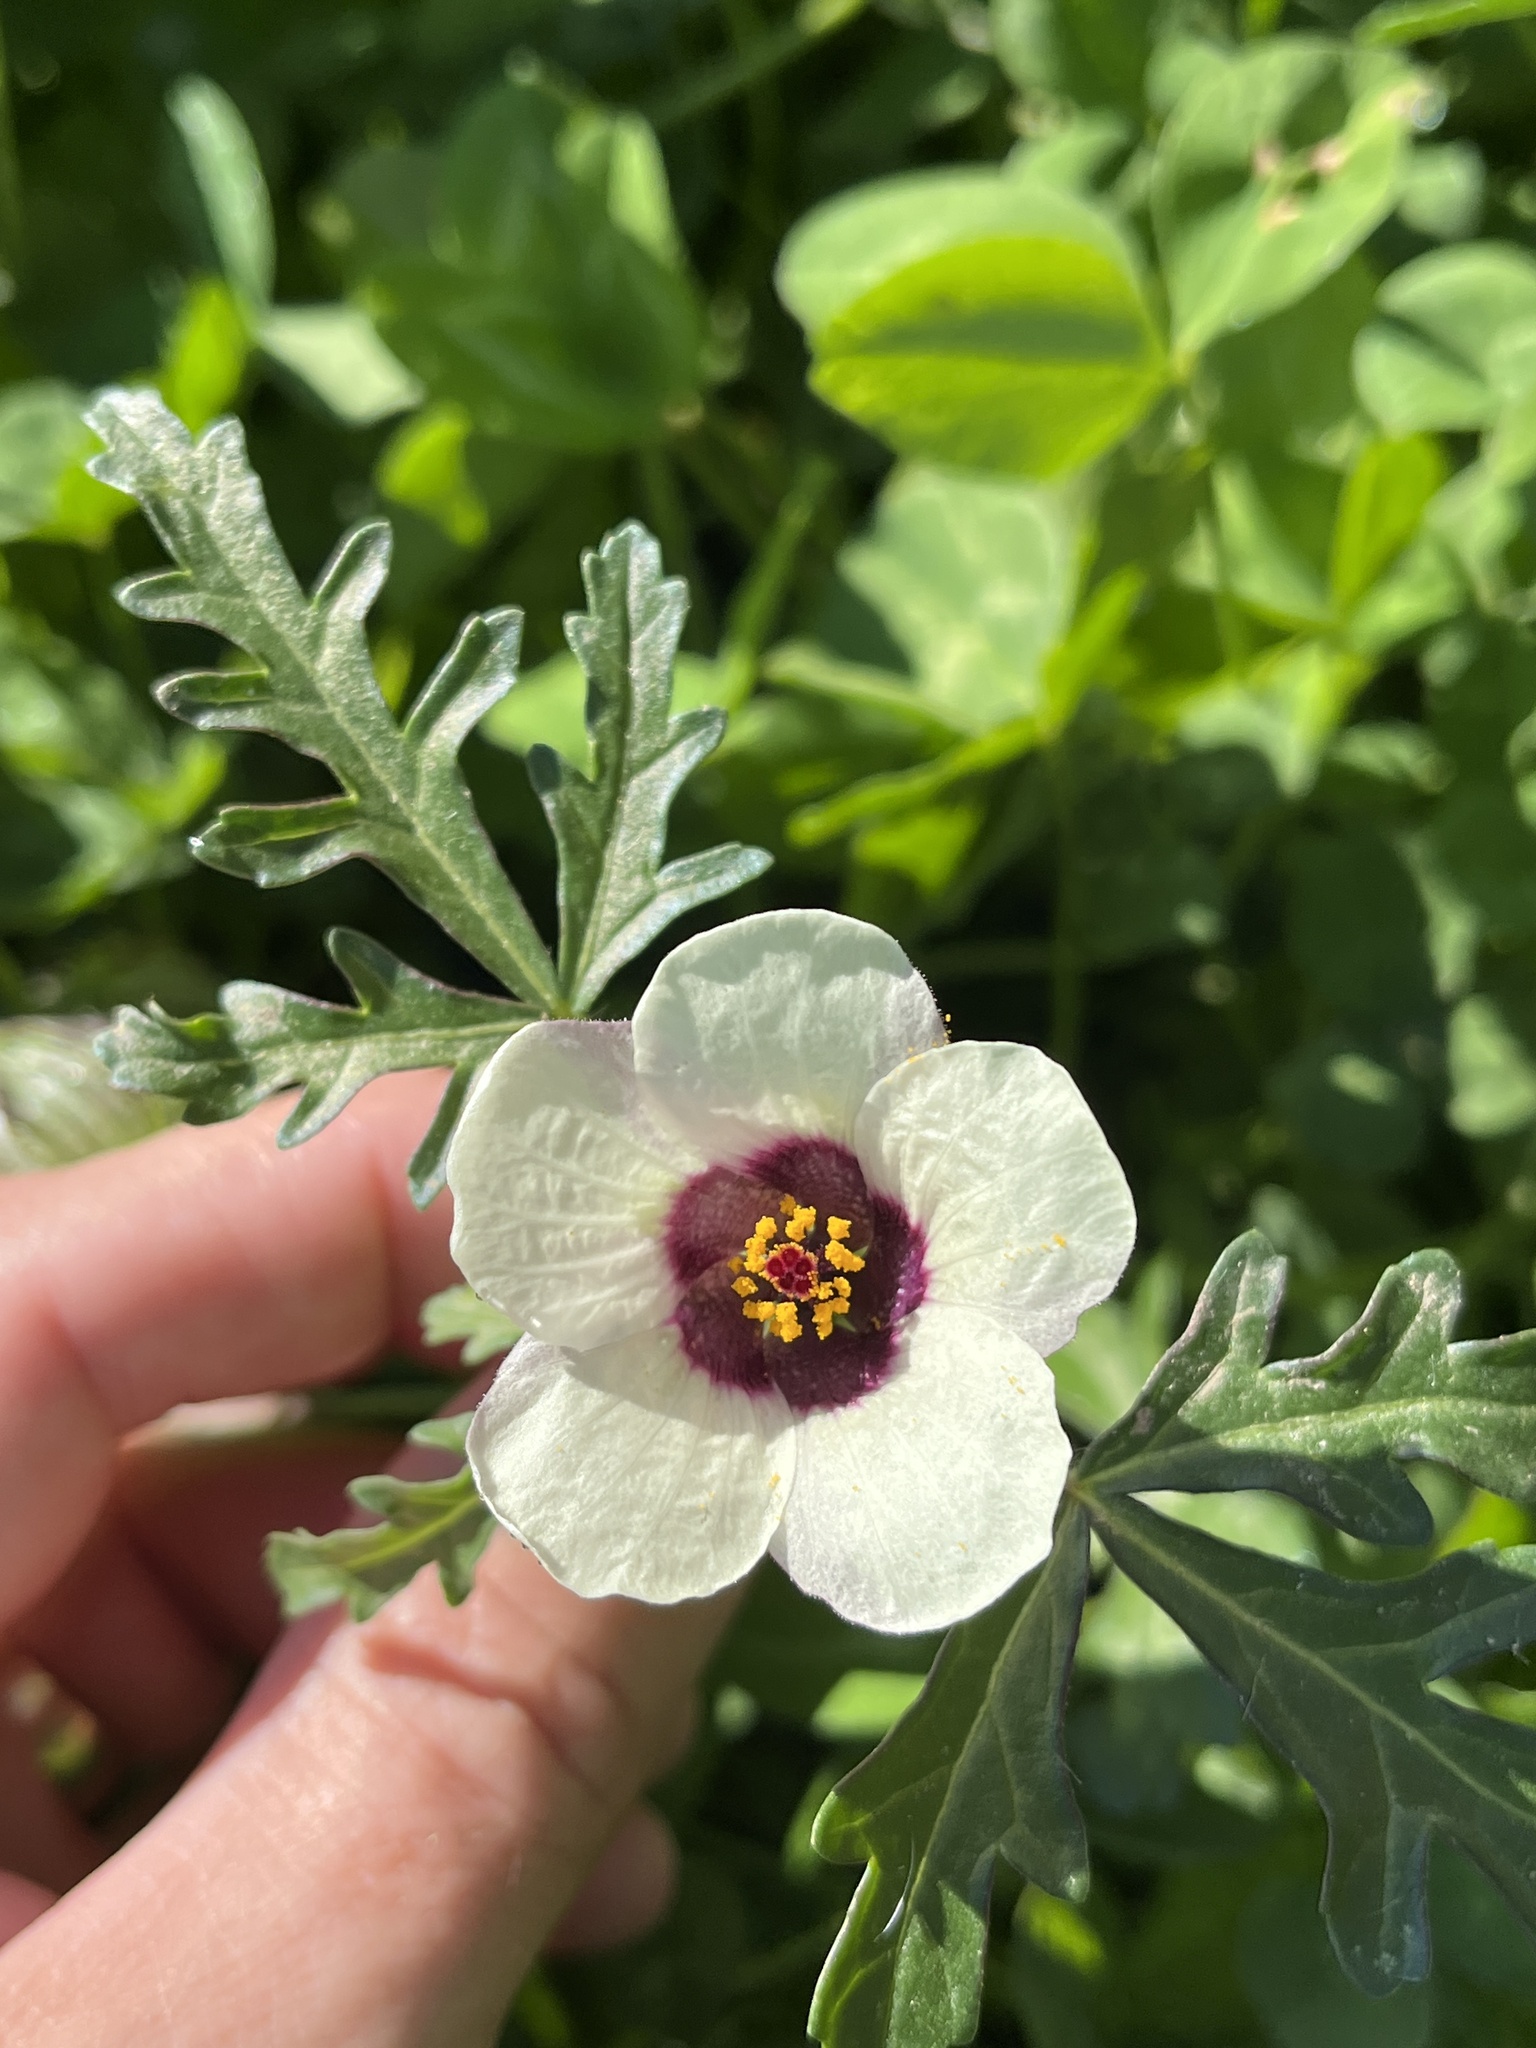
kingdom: Plantae
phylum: Tracheophyta
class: Magnoliopsida
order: Malvales
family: Malvaceae
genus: Hibiscus
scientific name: Hibiscus trionum
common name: Bladder ketmia
